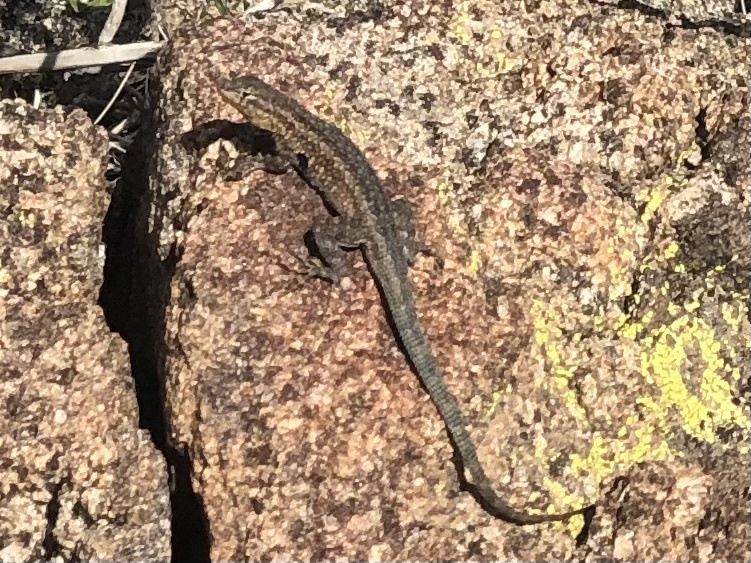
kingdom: Animalia
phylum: Chordata
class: Squamata
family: Phrynosomatidae
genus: Uta
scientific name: Uta stansburiana
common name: Side-blotched lizard
